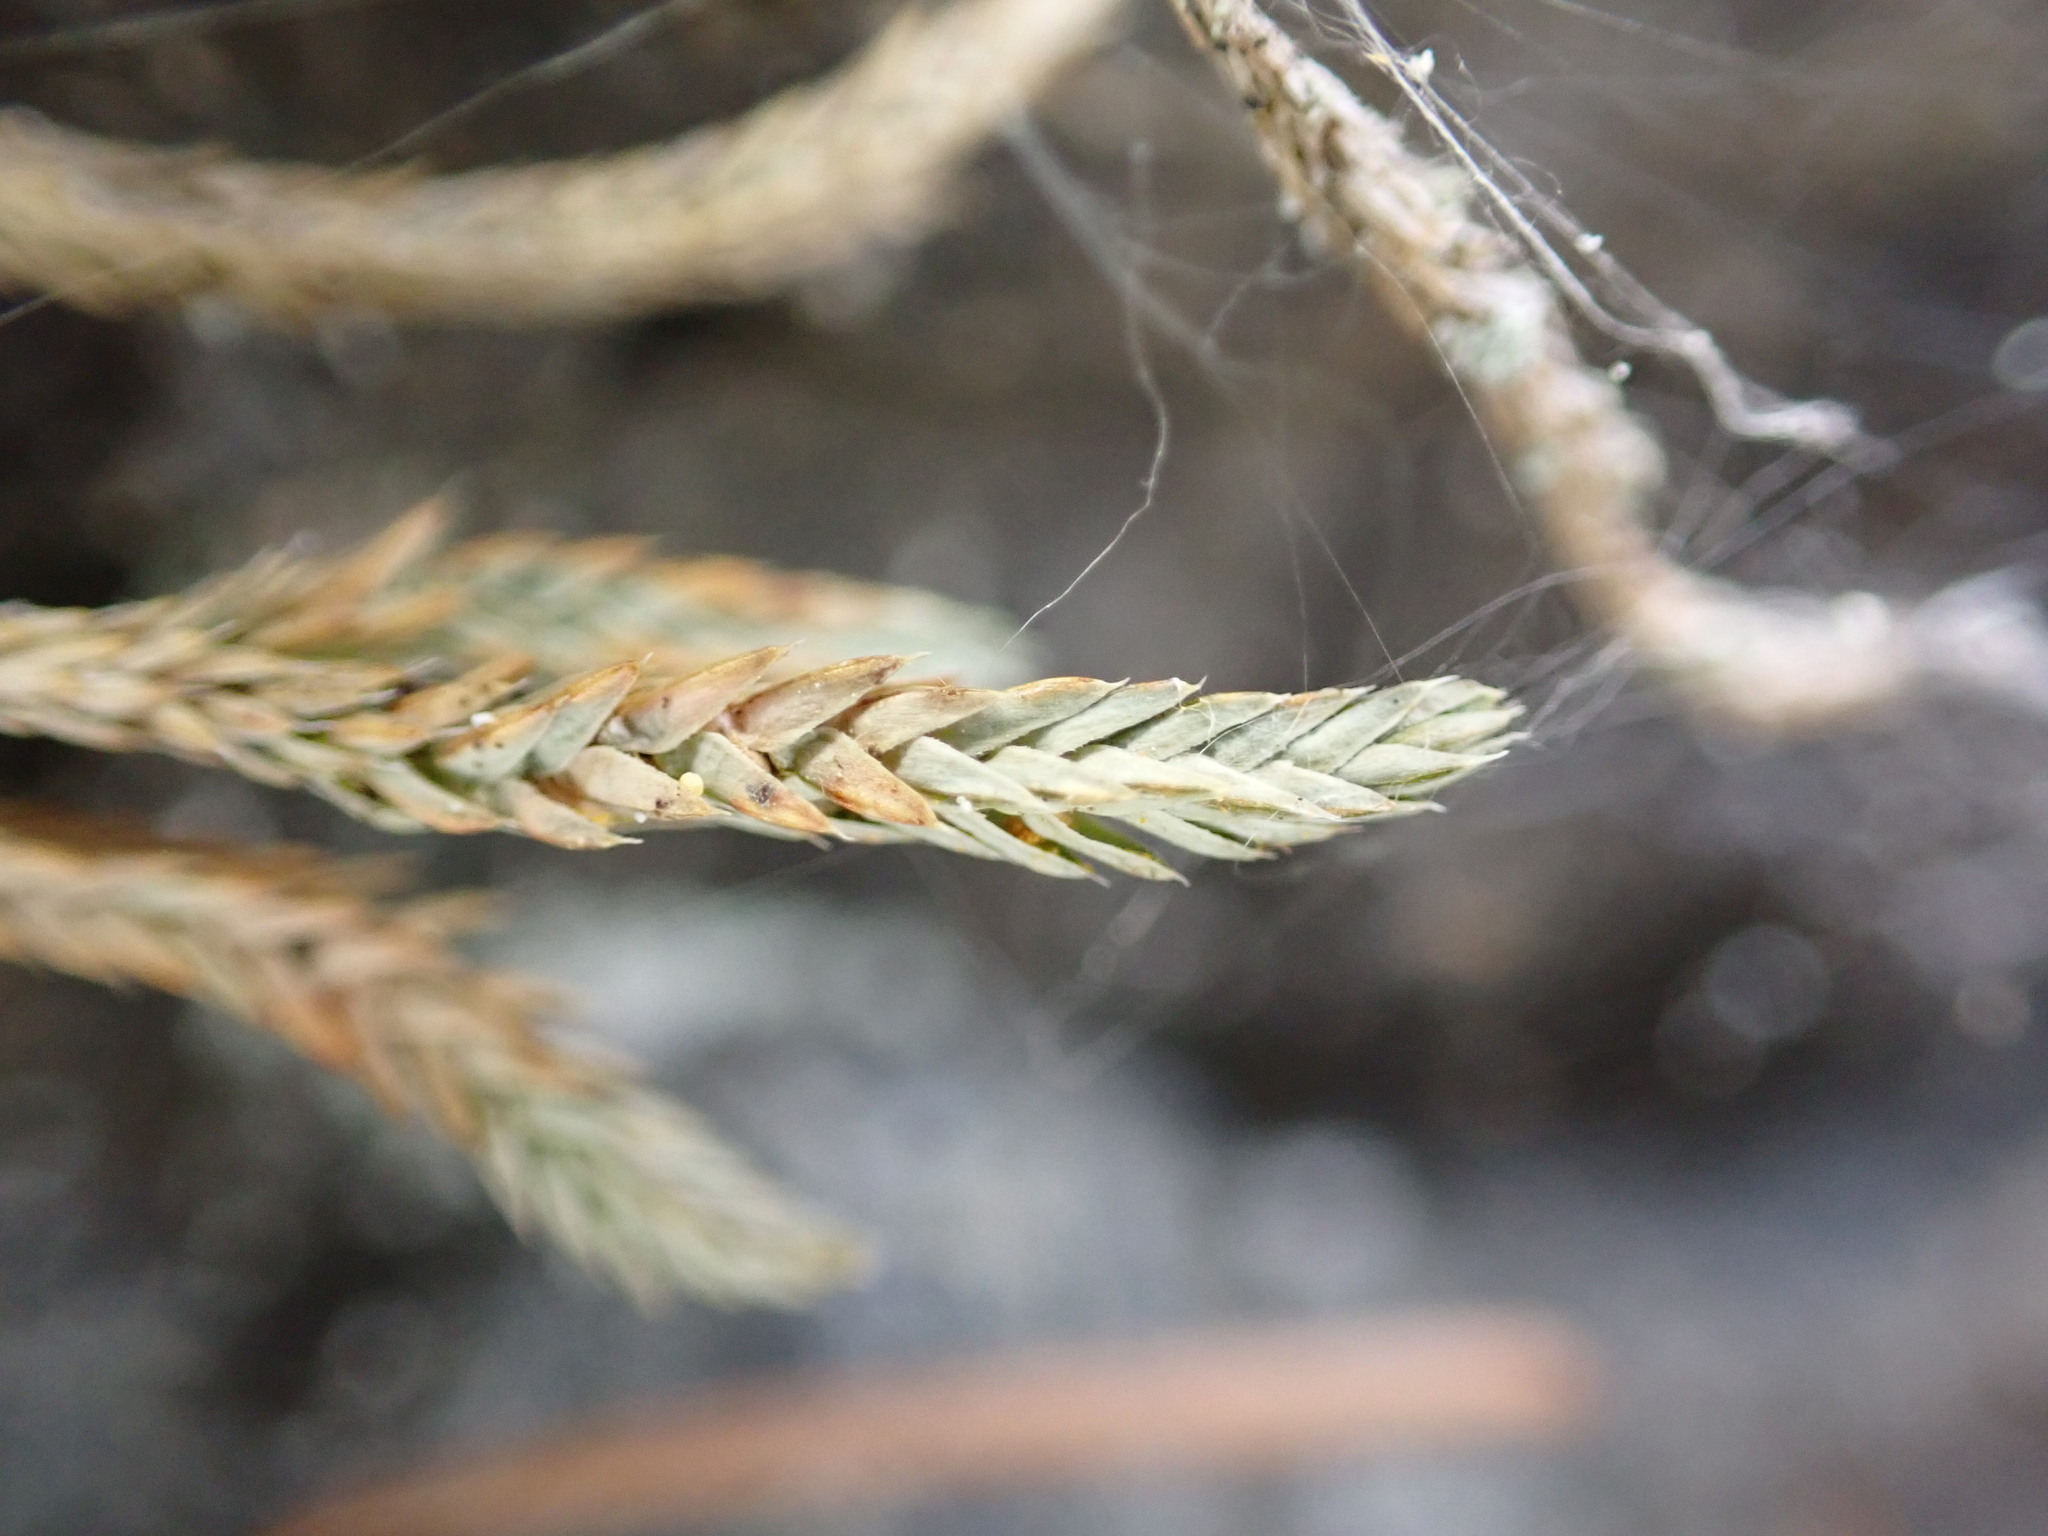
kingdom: Plantae
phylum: Tracheophyta
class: Lycopodiopsida
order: Selaginellales
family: Selaginellaceae
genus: Selaginella
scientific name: Selaginella wallacei
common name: Wallace's selaginella
